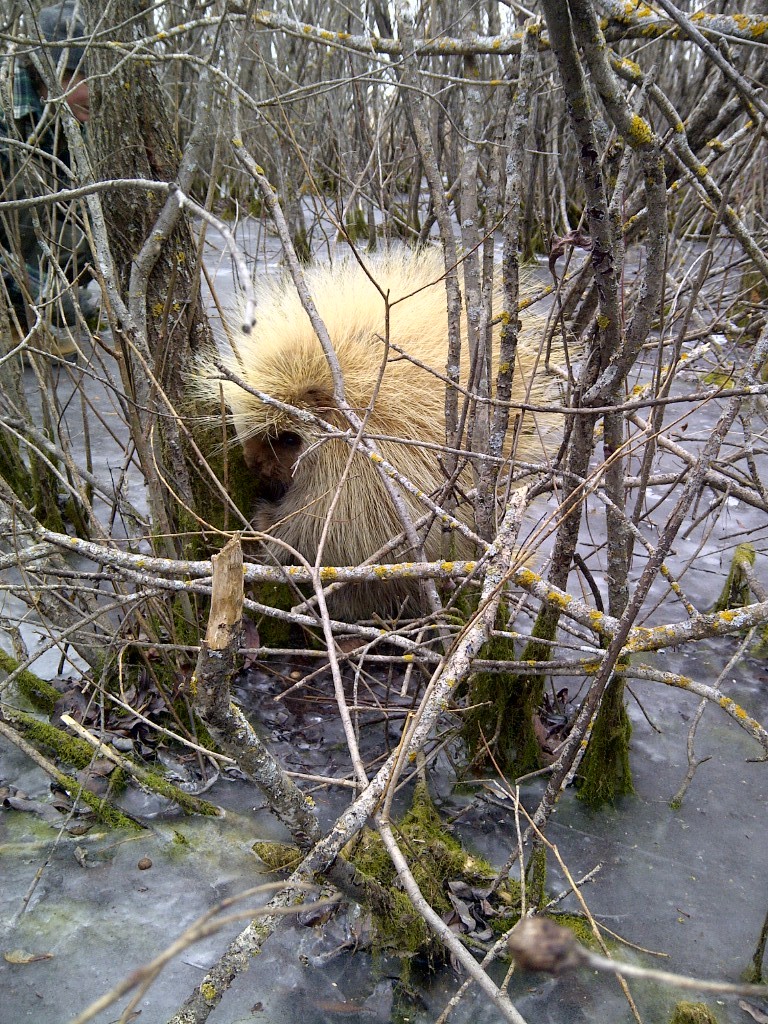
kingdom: Animalia
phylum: Chordata
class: Mammalia
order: Rodentia
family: Erethizontidae
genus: Erethizon
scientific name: Erethizon dorsatus
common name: North american porcupine
